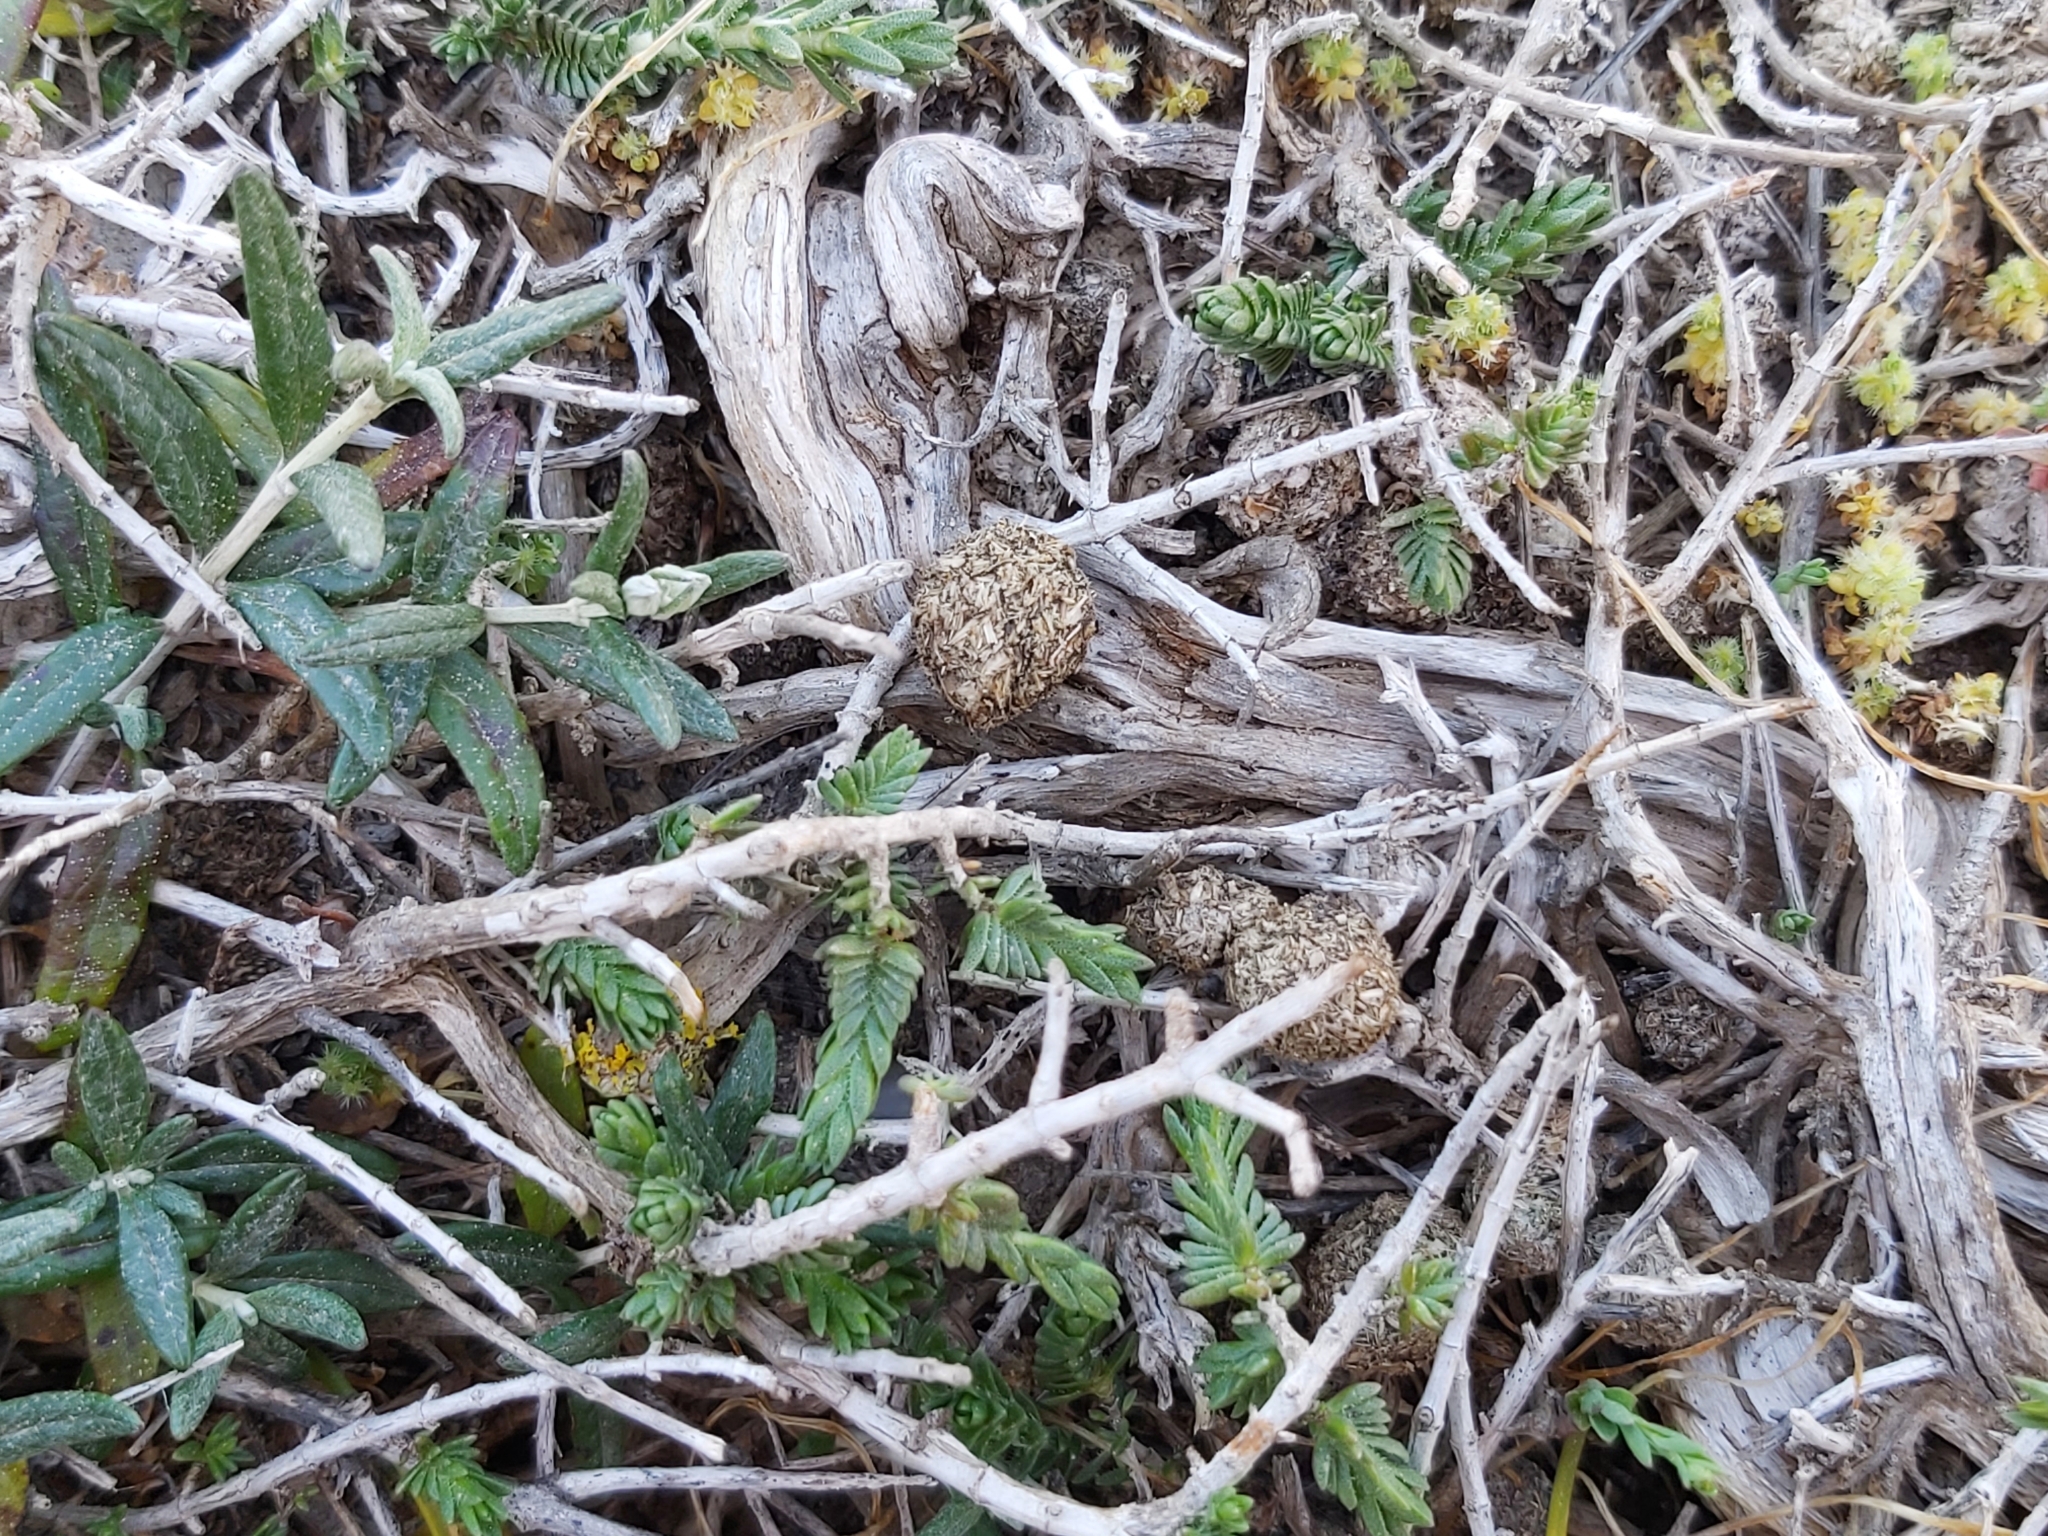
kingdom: Animalia
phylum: Chordata
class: Mammalia
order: Lagomorpha
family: Leporidae
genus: Oryctolagus
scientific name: Oryctolagus cuniculus
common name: European rabbit
